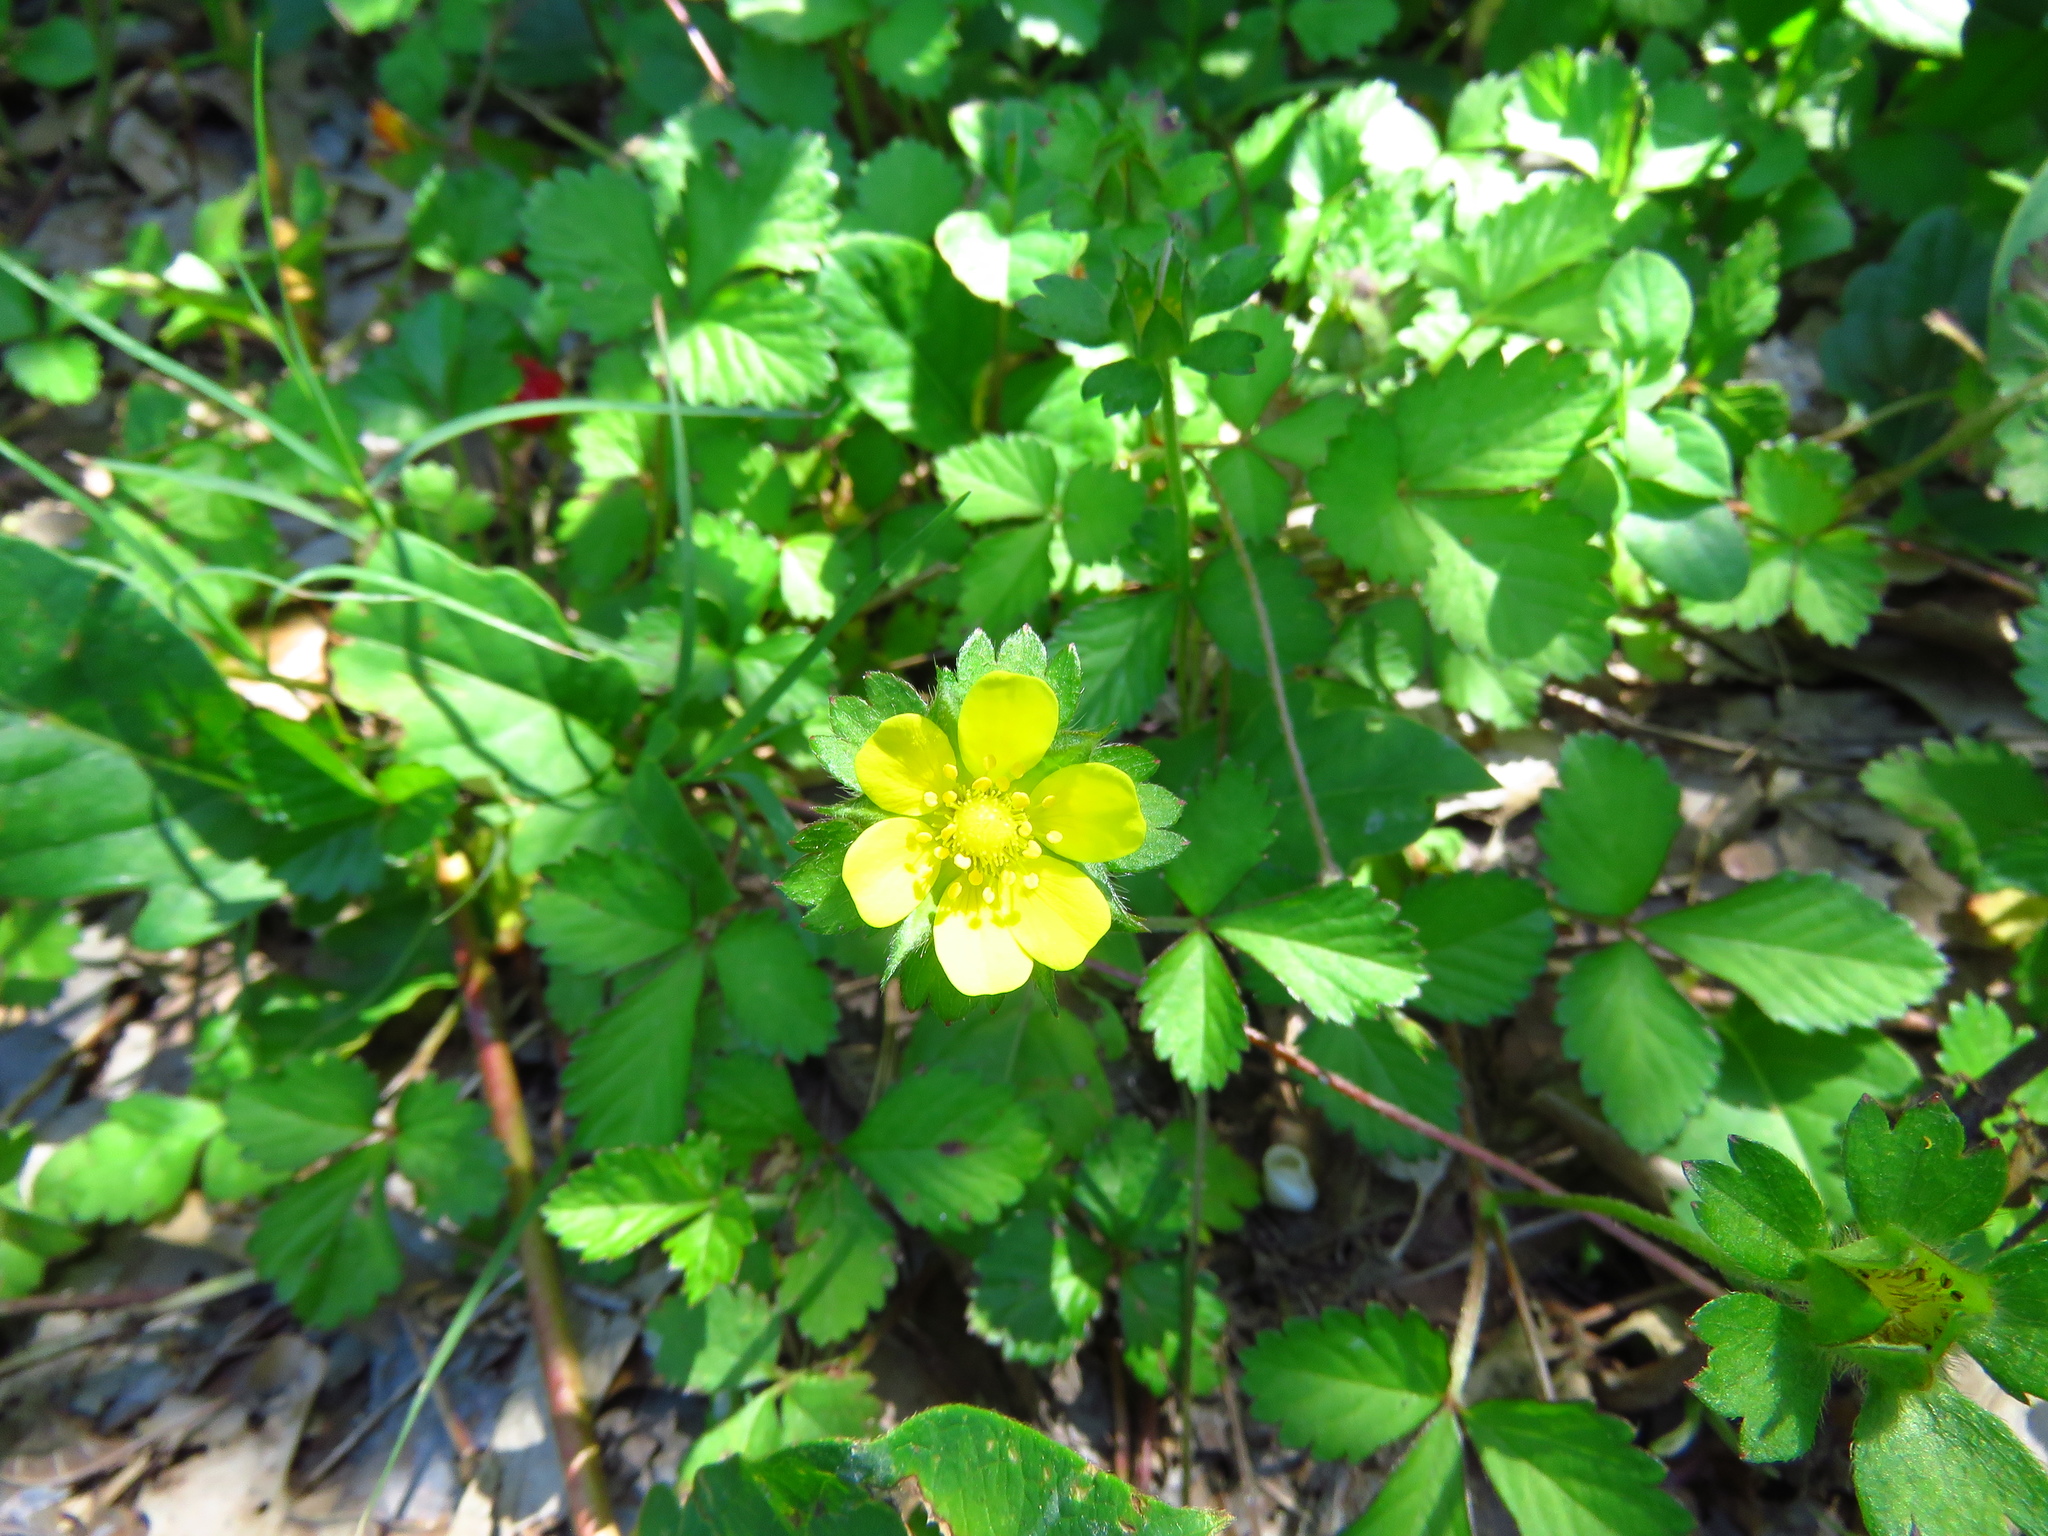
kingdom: Plantae
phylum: Tracheophyta
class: Magnoliopsida
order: Rosales
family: Rosaceae
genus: Potentilla
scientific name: Potentilla indica
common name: Yellow-flowered strawberry
